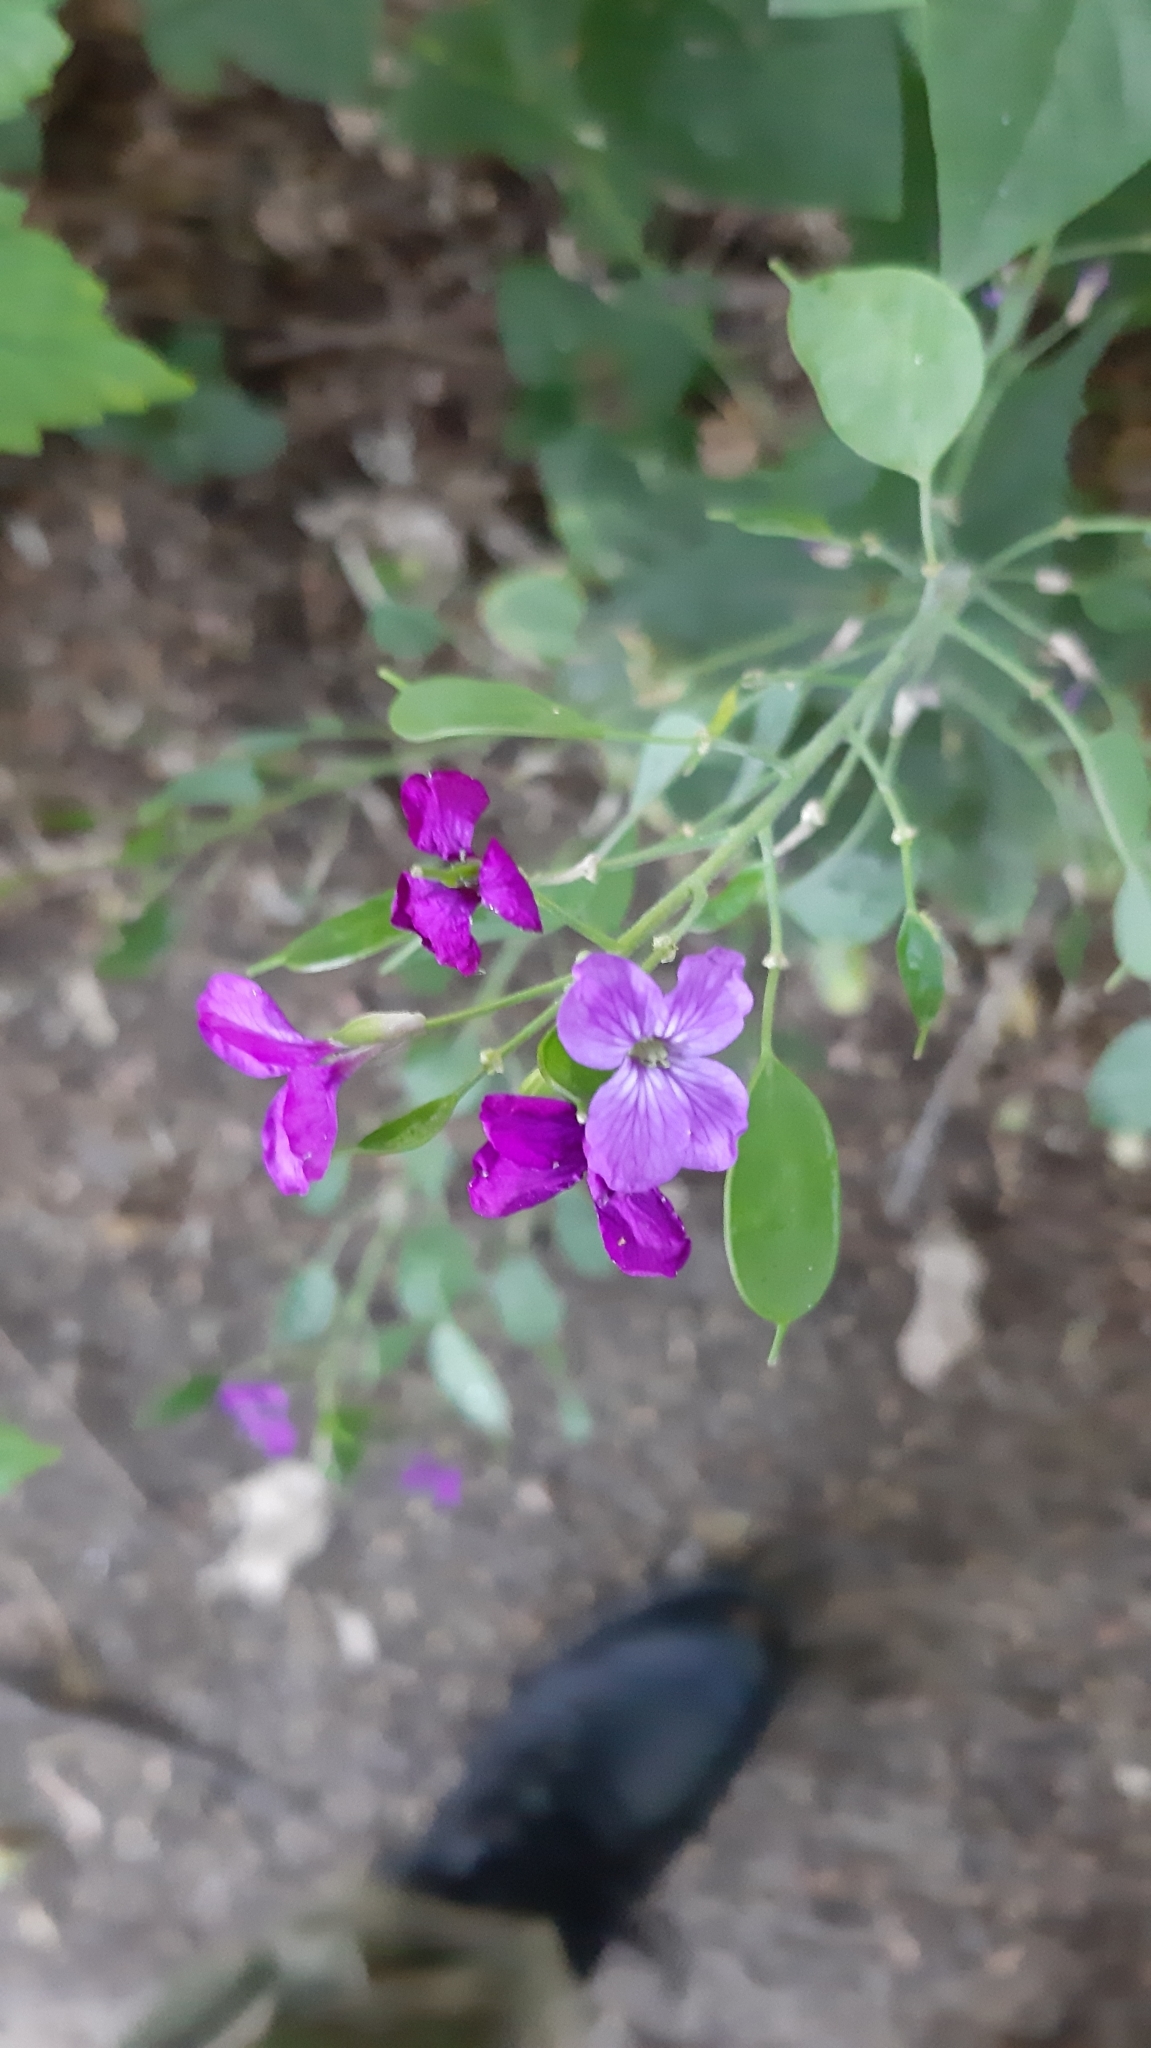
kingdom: Plantae
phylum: Tracheophyta
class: Magnoliopsida
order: Brassicales
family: Brassicaceae
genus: Lunaria
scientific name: Lunaria annua
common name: Honesty
